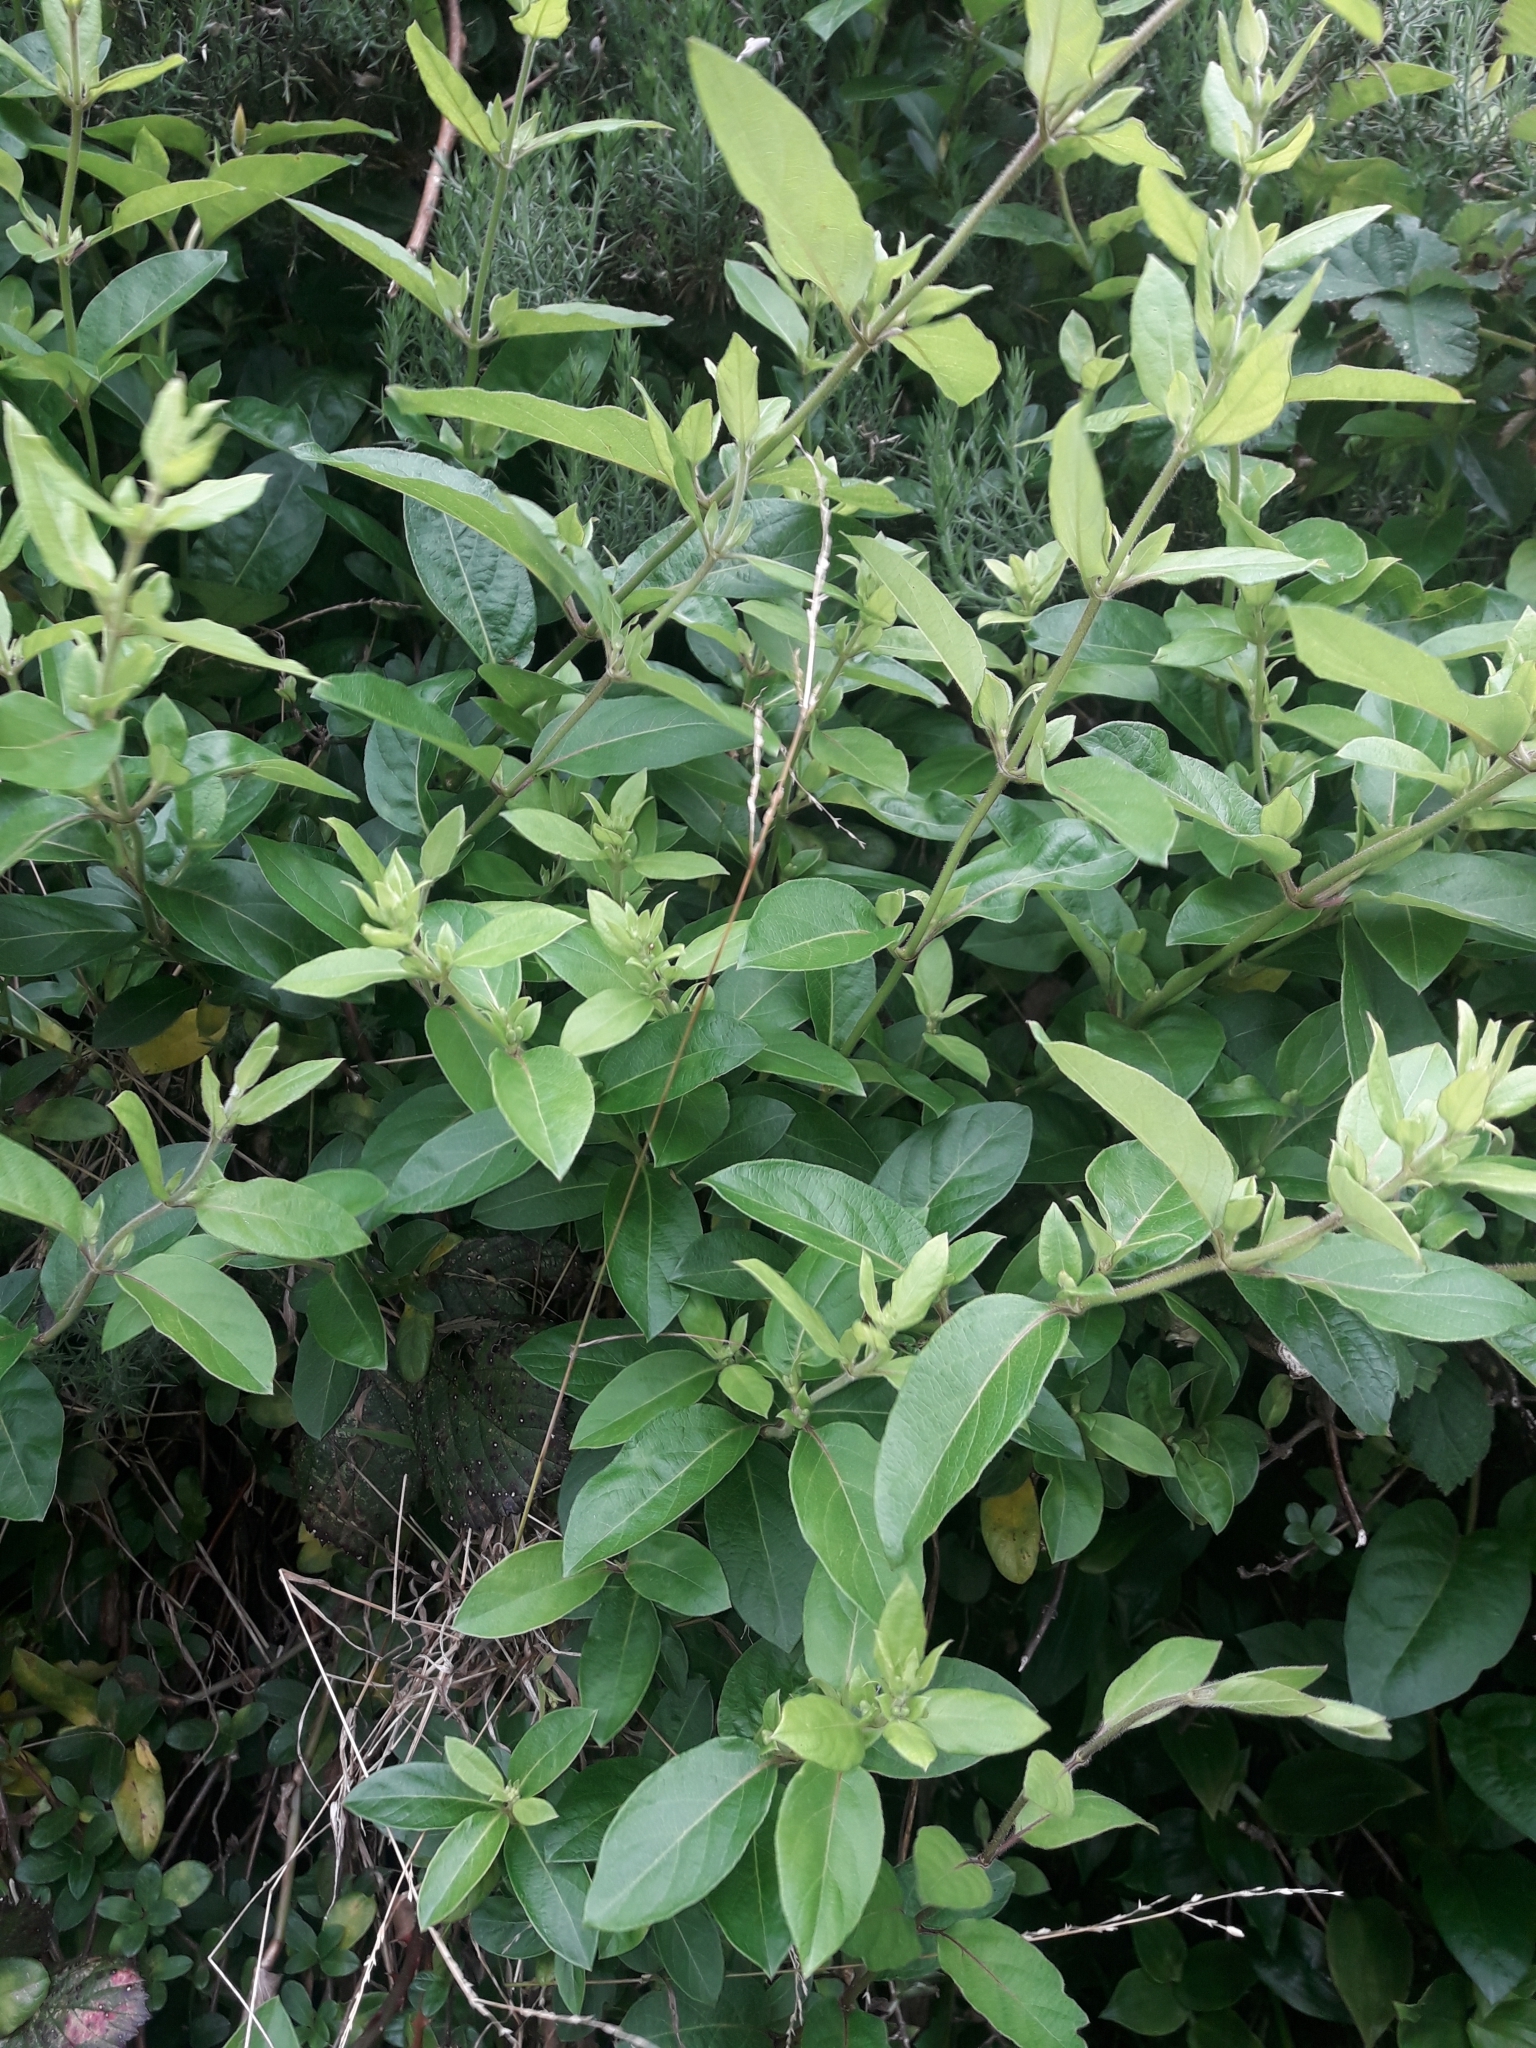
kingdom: Plantae
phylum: Tracheophyta
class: Magnoliopsida
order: Dipsacales
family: Caprifoliaceae
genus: Lonicera
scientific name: Lonicera japonica
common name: Japanese honeysuckle
